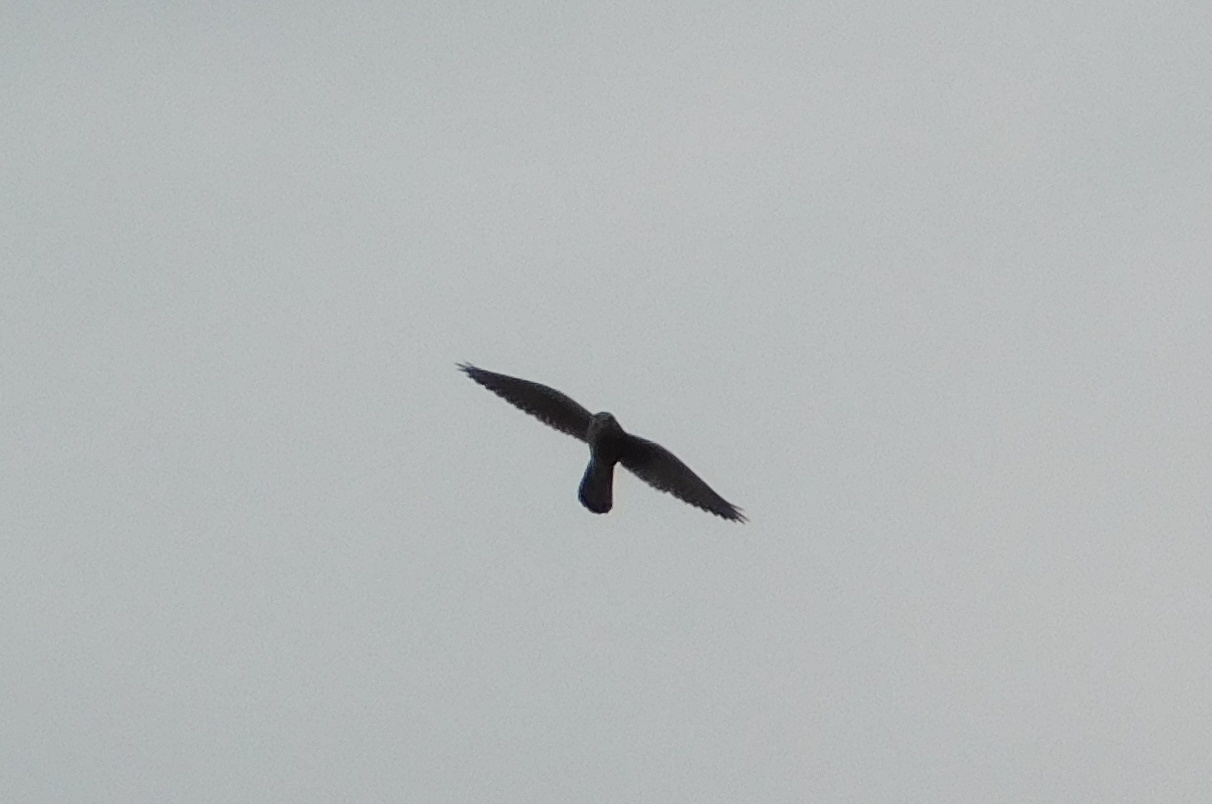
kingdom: Animalia
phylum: Chordata
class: Aves
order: Falconiformes
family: Falconidae
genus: Falco
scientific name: Falco tinnunculus
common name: Common kestrel
